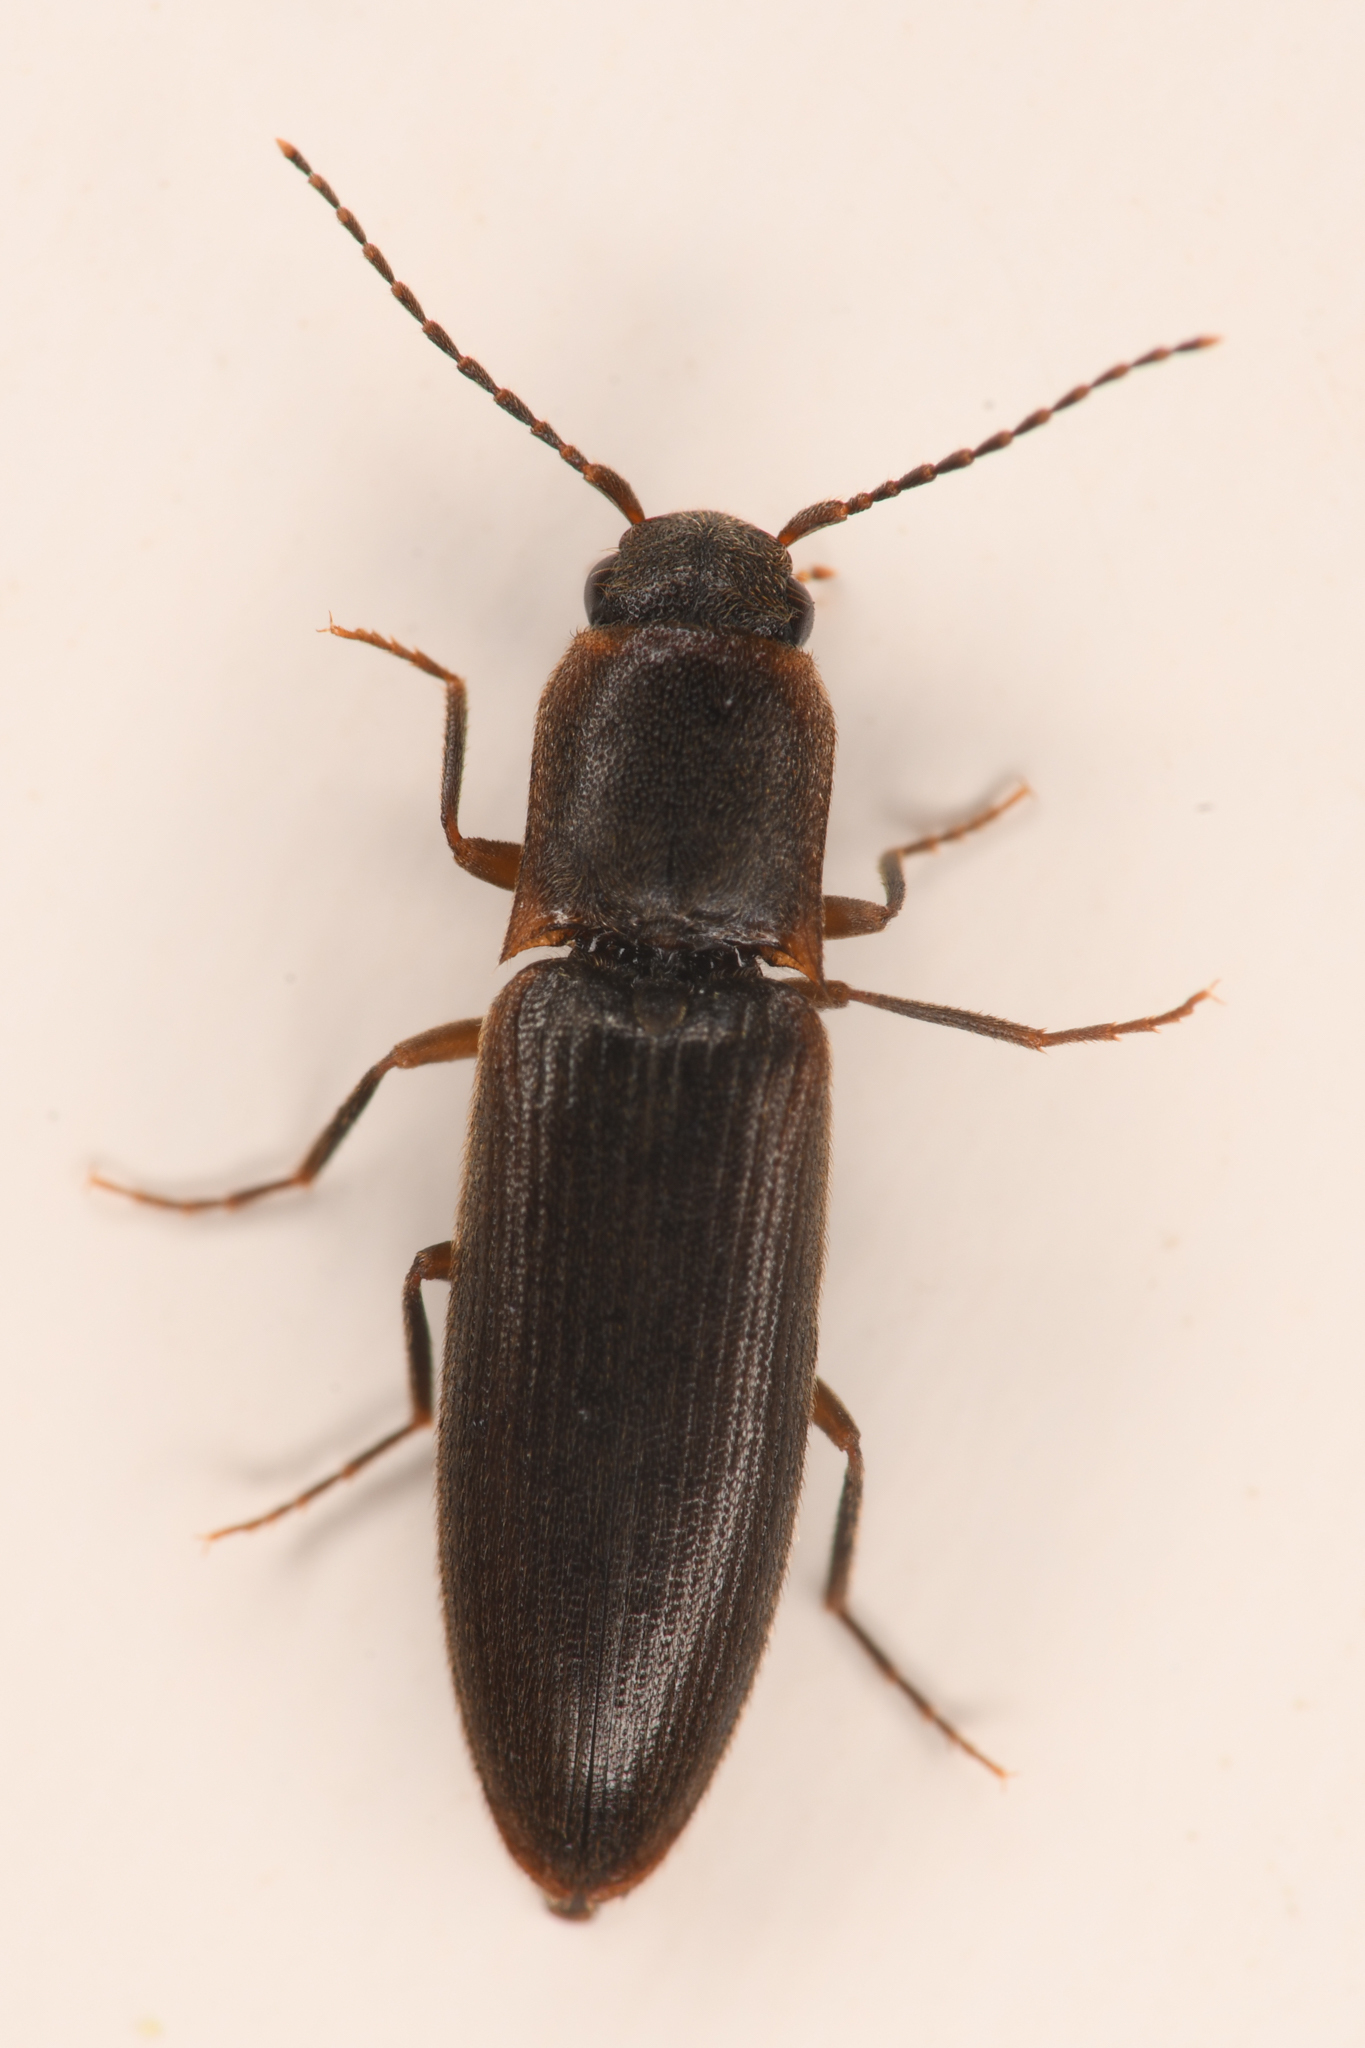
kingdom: Animalia
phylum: Arthropoda
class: Insecta
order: Coleoptera
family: Elateridae
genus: Dalopius
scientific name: Dalopius spretus
